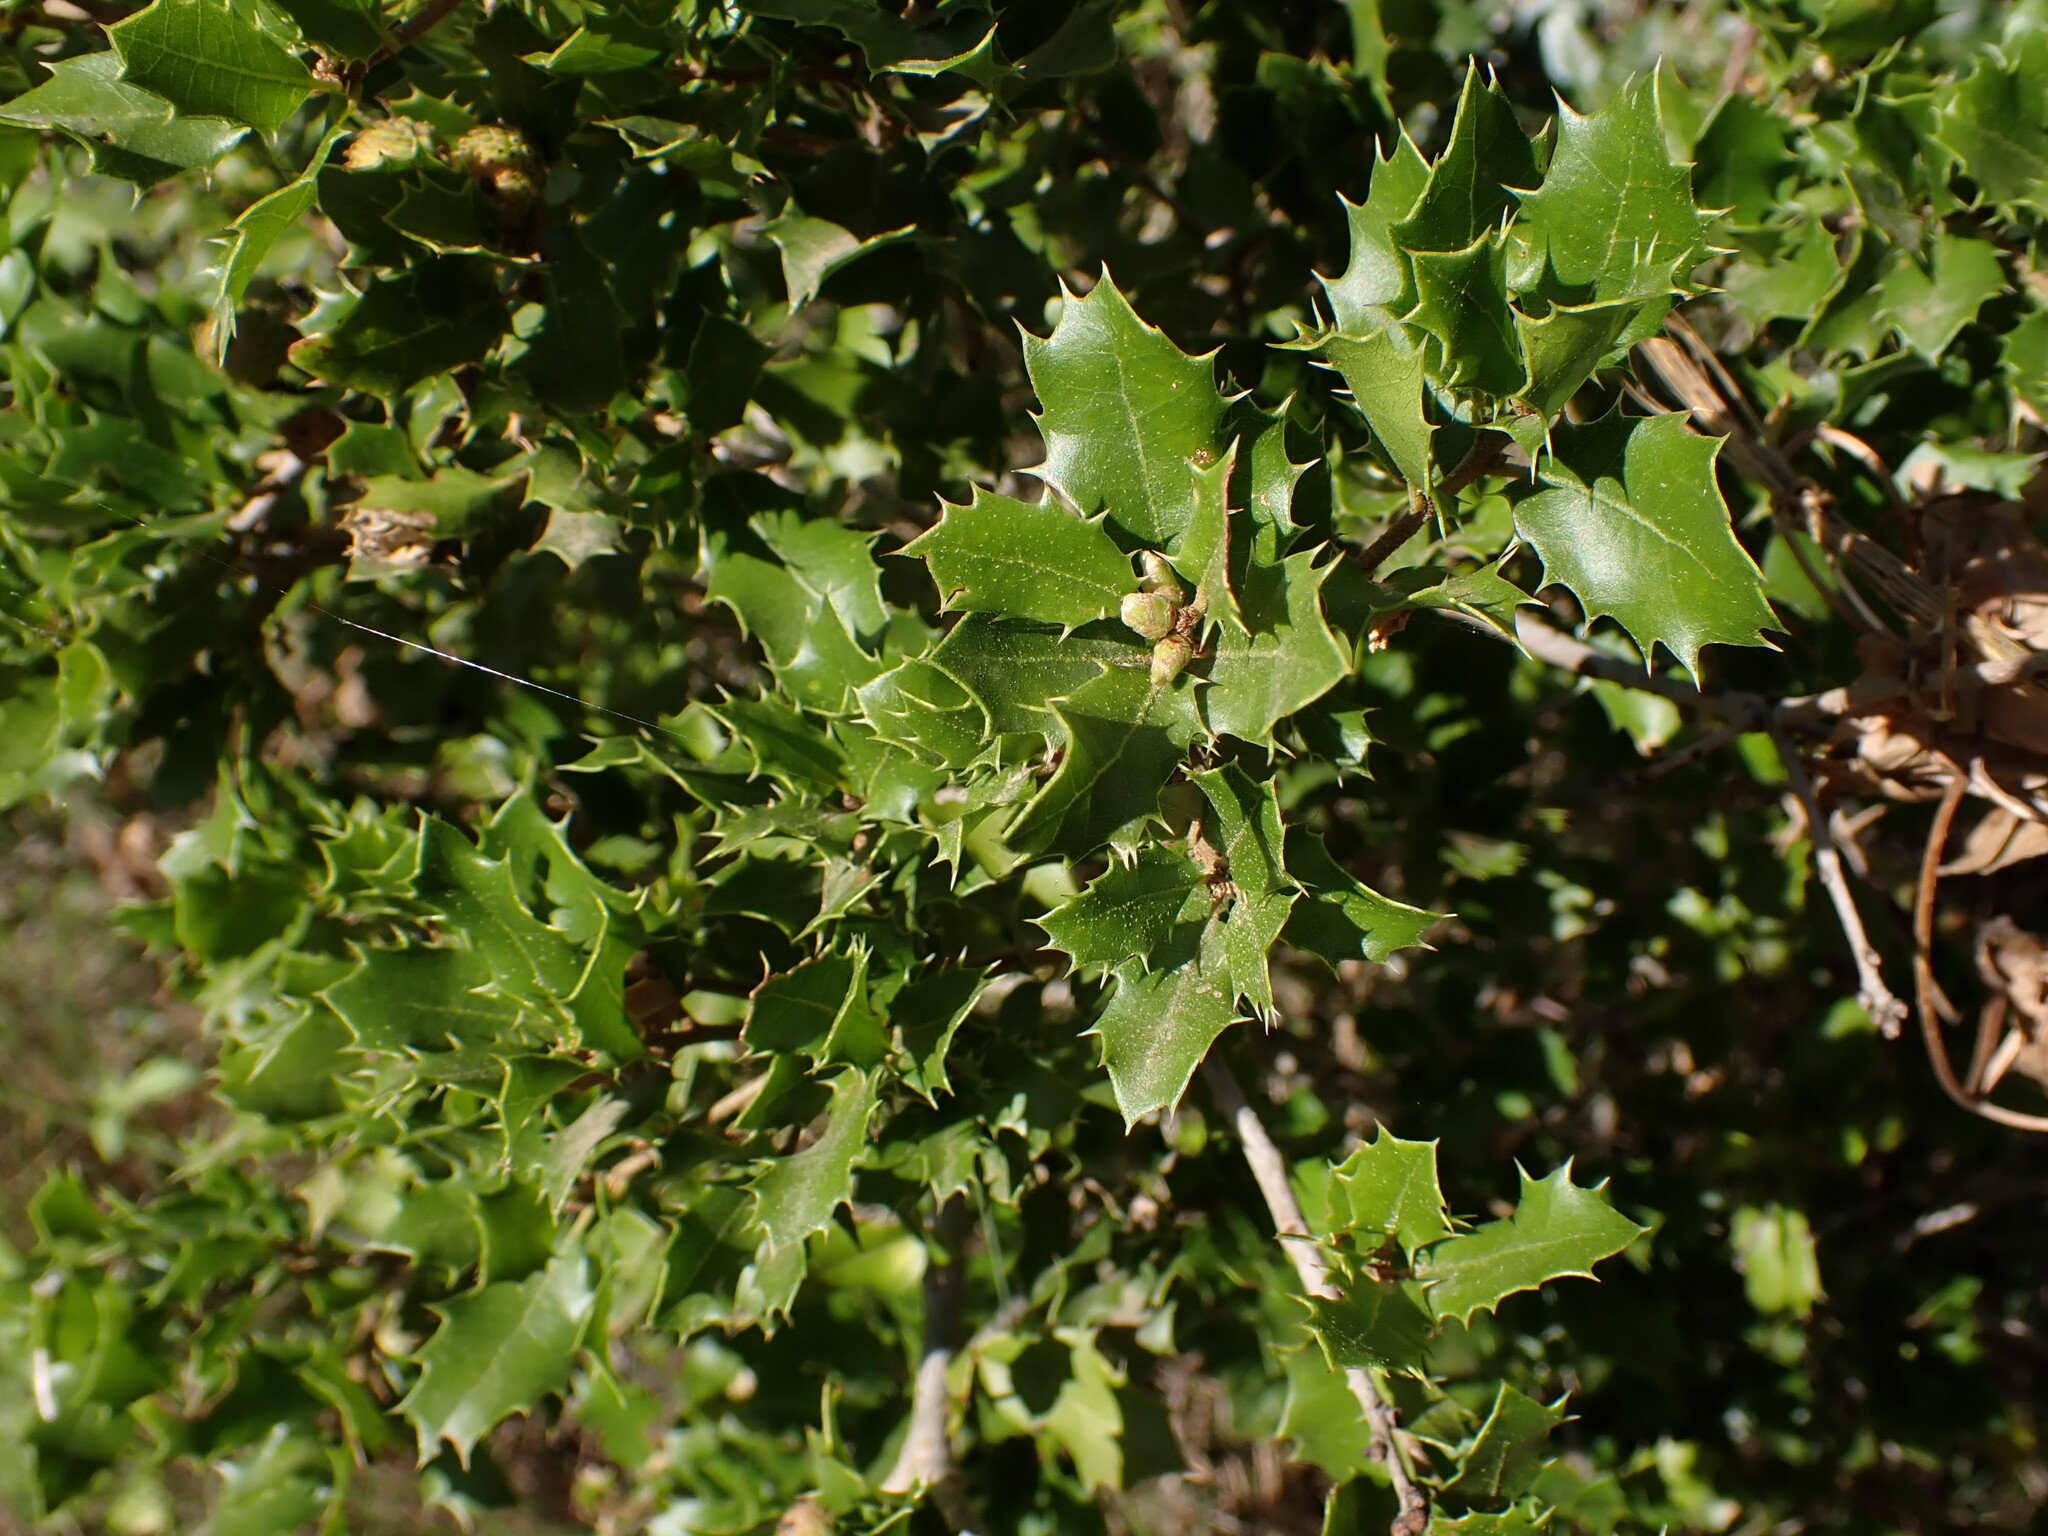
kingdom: Plantae
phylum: Tracheophyta
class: Magnoliopsida
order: Fagales
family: Fagaceae
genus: Quercus
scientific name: Quercus coccifera
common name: Kermes oak
